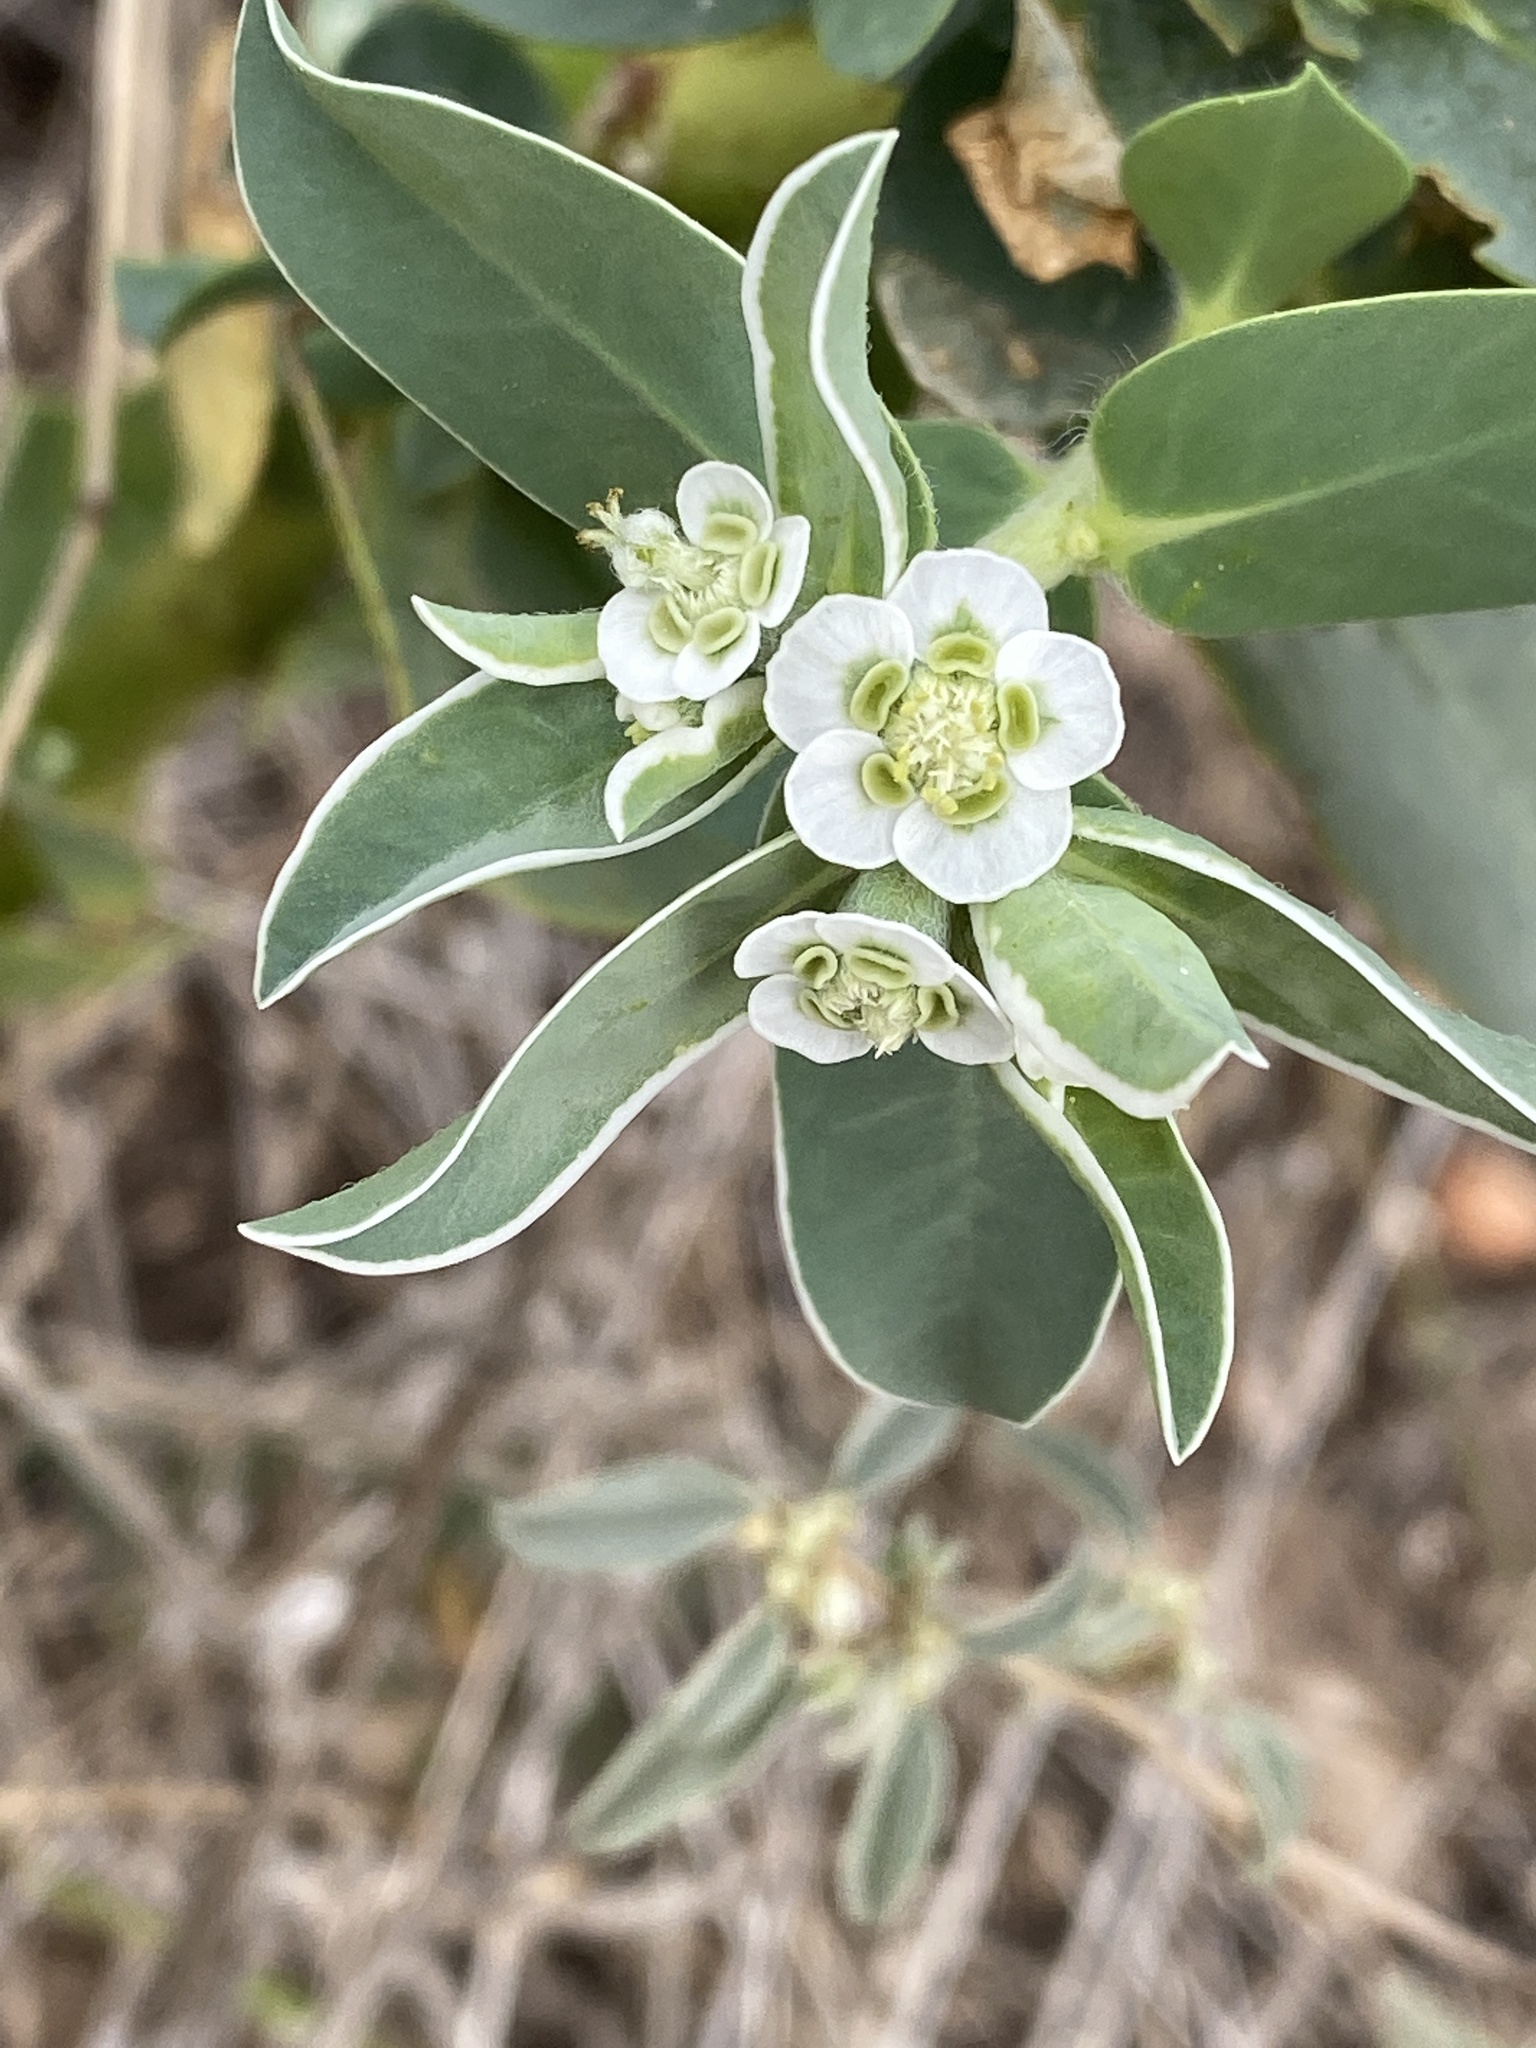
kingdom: Plantae
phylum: Tracheophyta
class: Magnoliopsida
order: Malpighiales
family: Euphorbiaceae
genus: Euphorbia
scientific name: Euphorbia marginata
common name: Ghostweed
